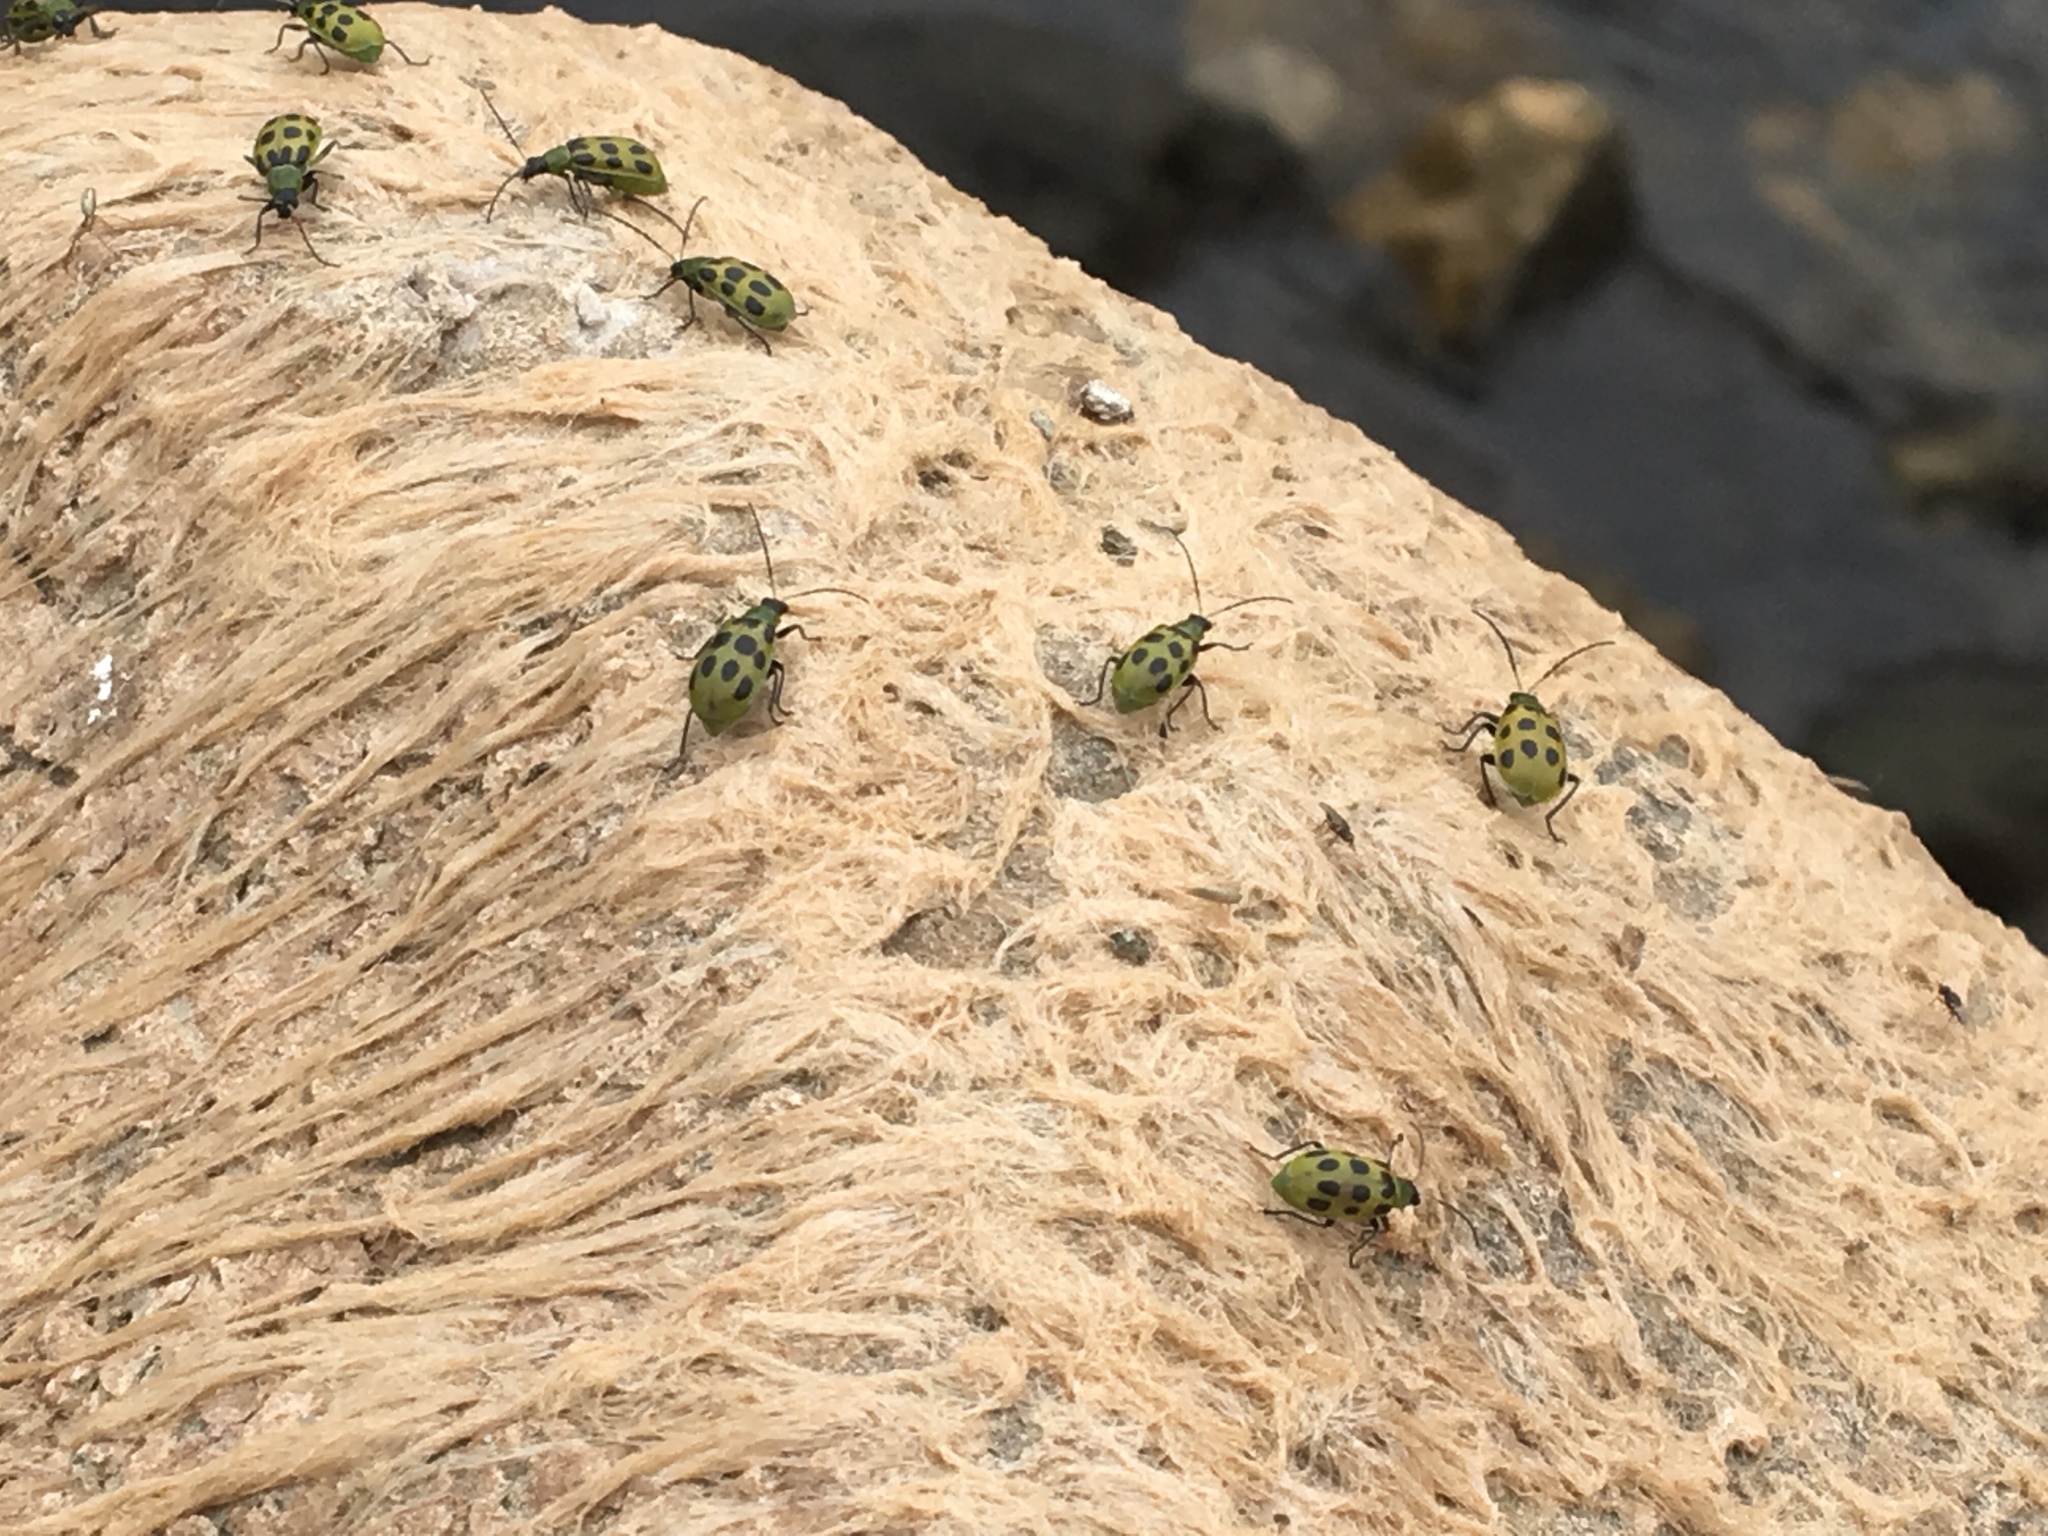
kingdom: Animalia
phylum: Arthropoda
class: Insecta
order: Coleoptera
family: Chrysomelidae
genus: Diabrotica
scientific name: Diabrotica undecimpunctata
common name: Spotted cucumber beetle
